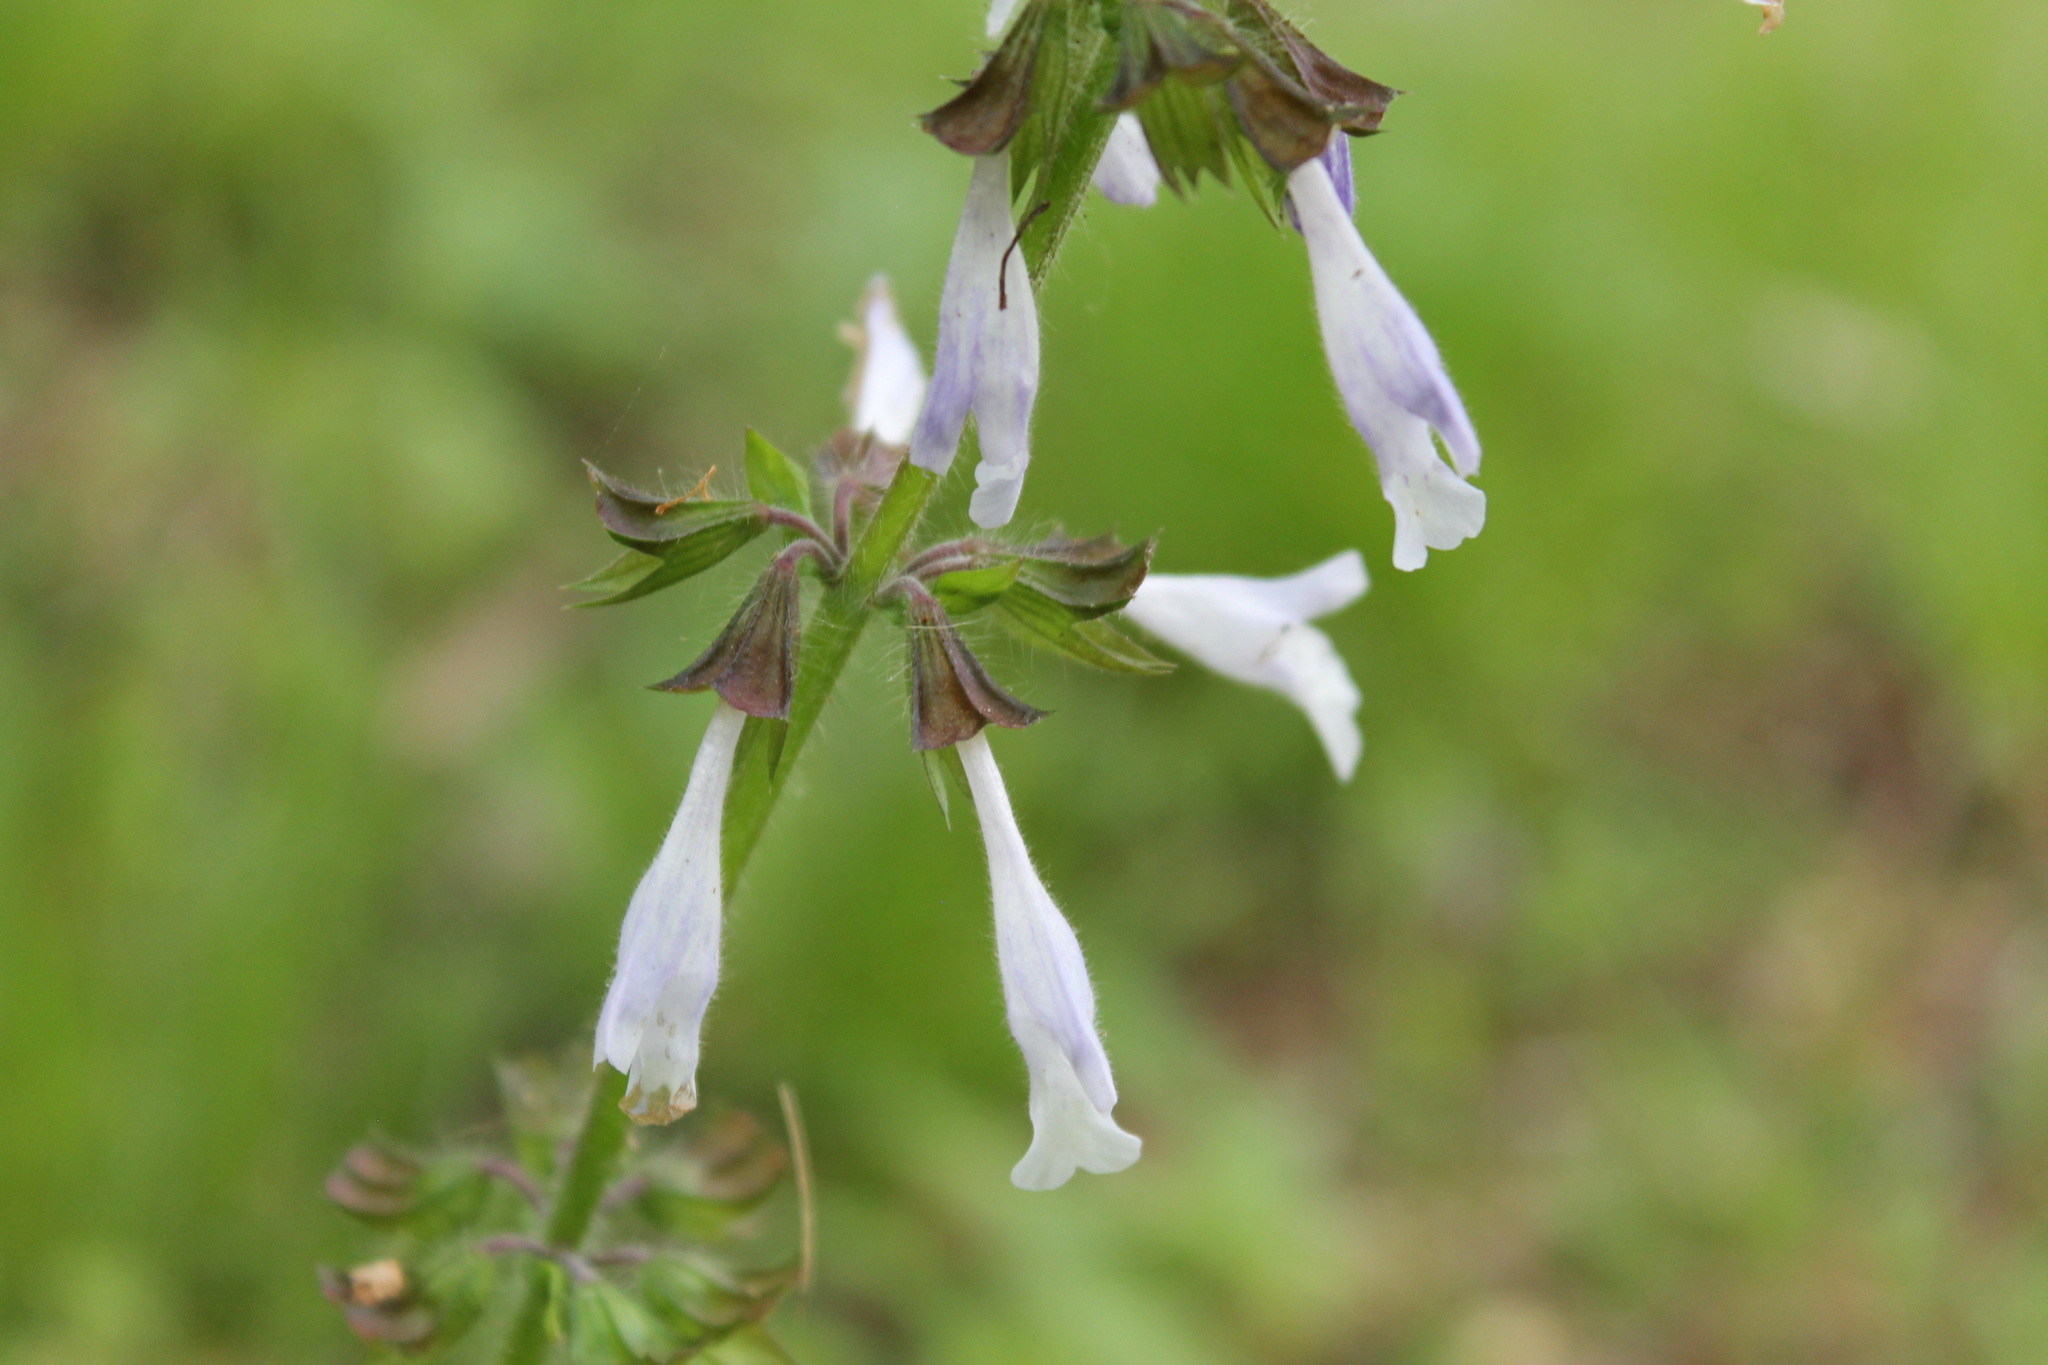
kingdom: Plantae
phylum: Tracheophyta
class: Magnoliopsida
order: Lamiales
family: Lamiaceae
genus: Salvia
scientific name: Salvia lyrata
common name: Cancerweed
